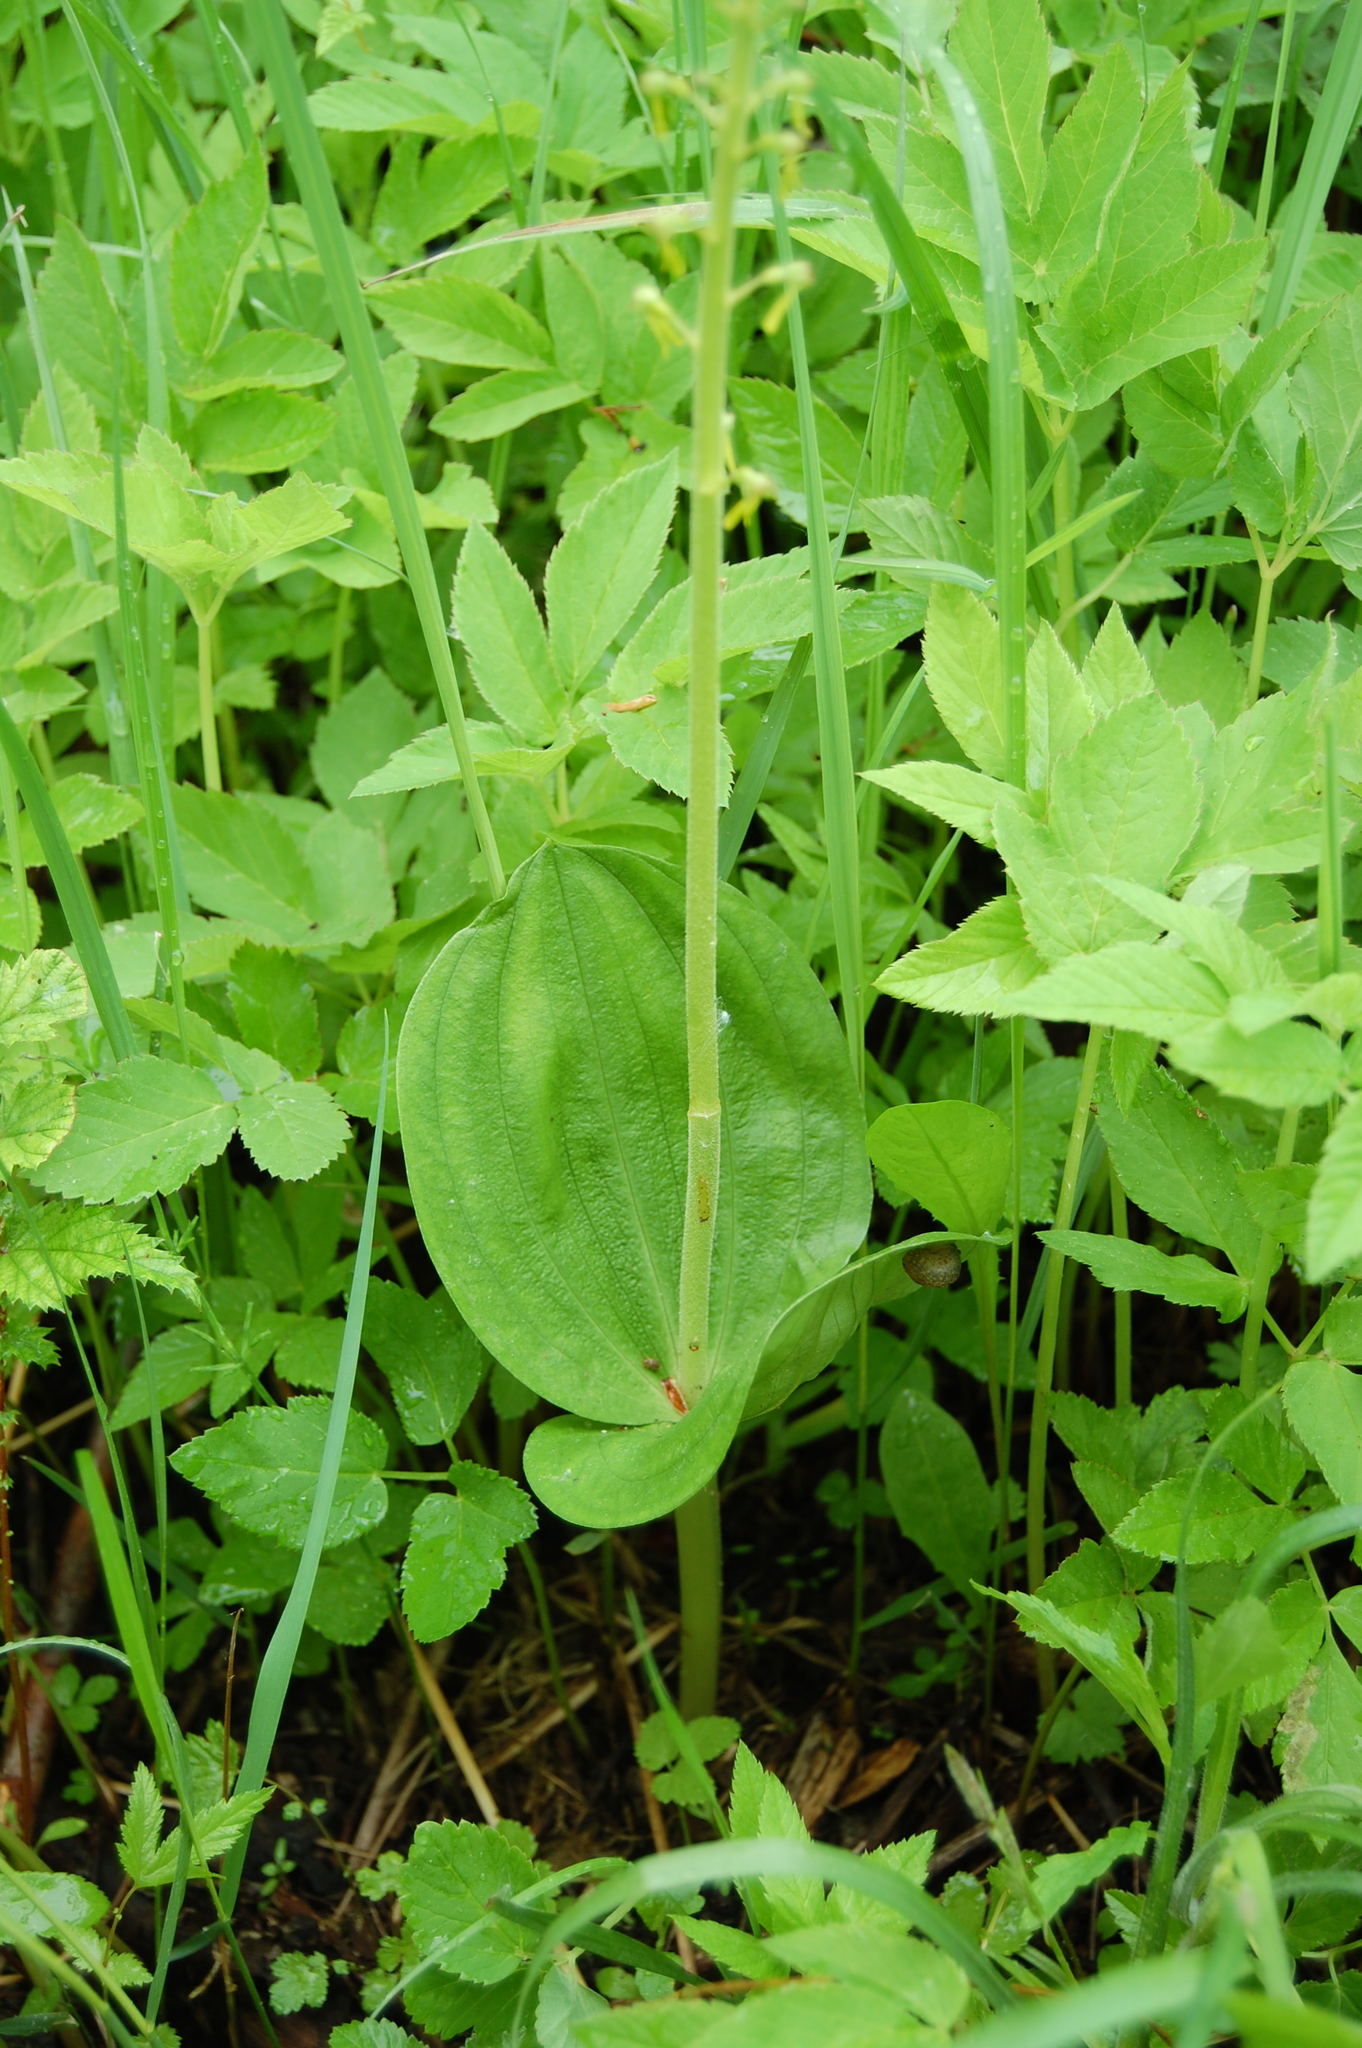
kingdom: Plantae
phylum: Tracheophyta
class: Liliopsida
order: Asparagales
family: Orchidaceae
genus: Neottia
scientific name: Neottia ovata
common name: Common twayblade
